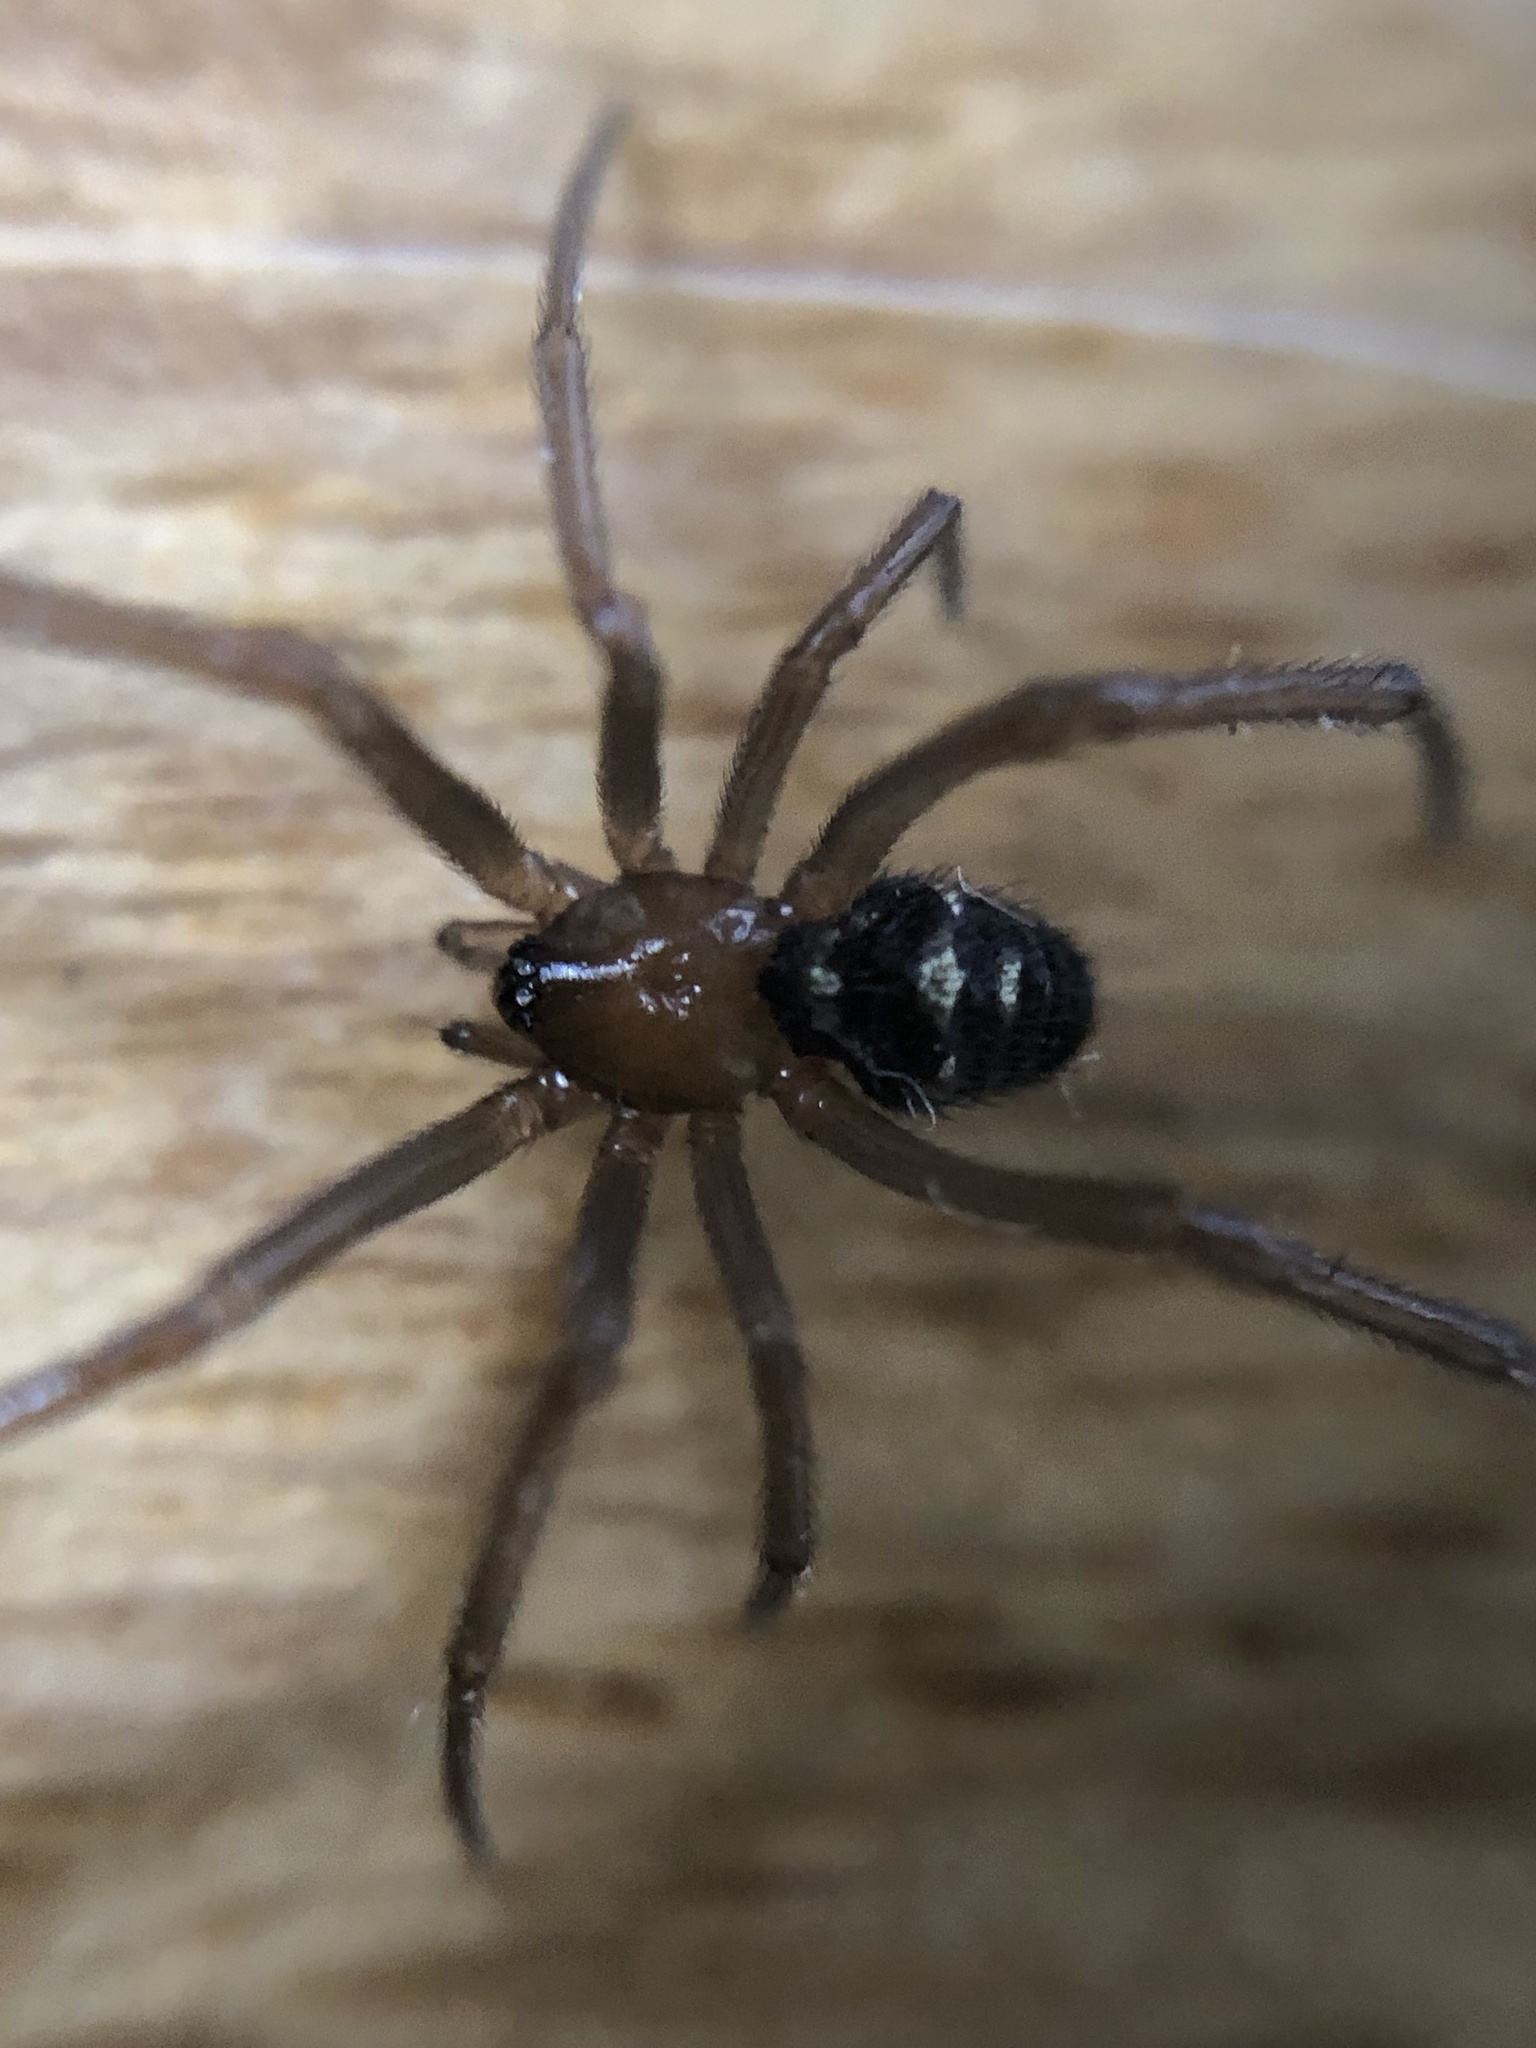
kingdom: Animalia
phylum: Arthropoda
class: Arachnida
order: Araneae
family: Theridiidae
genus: Steatoda
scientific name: Steatoda grossa
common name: False black widow
